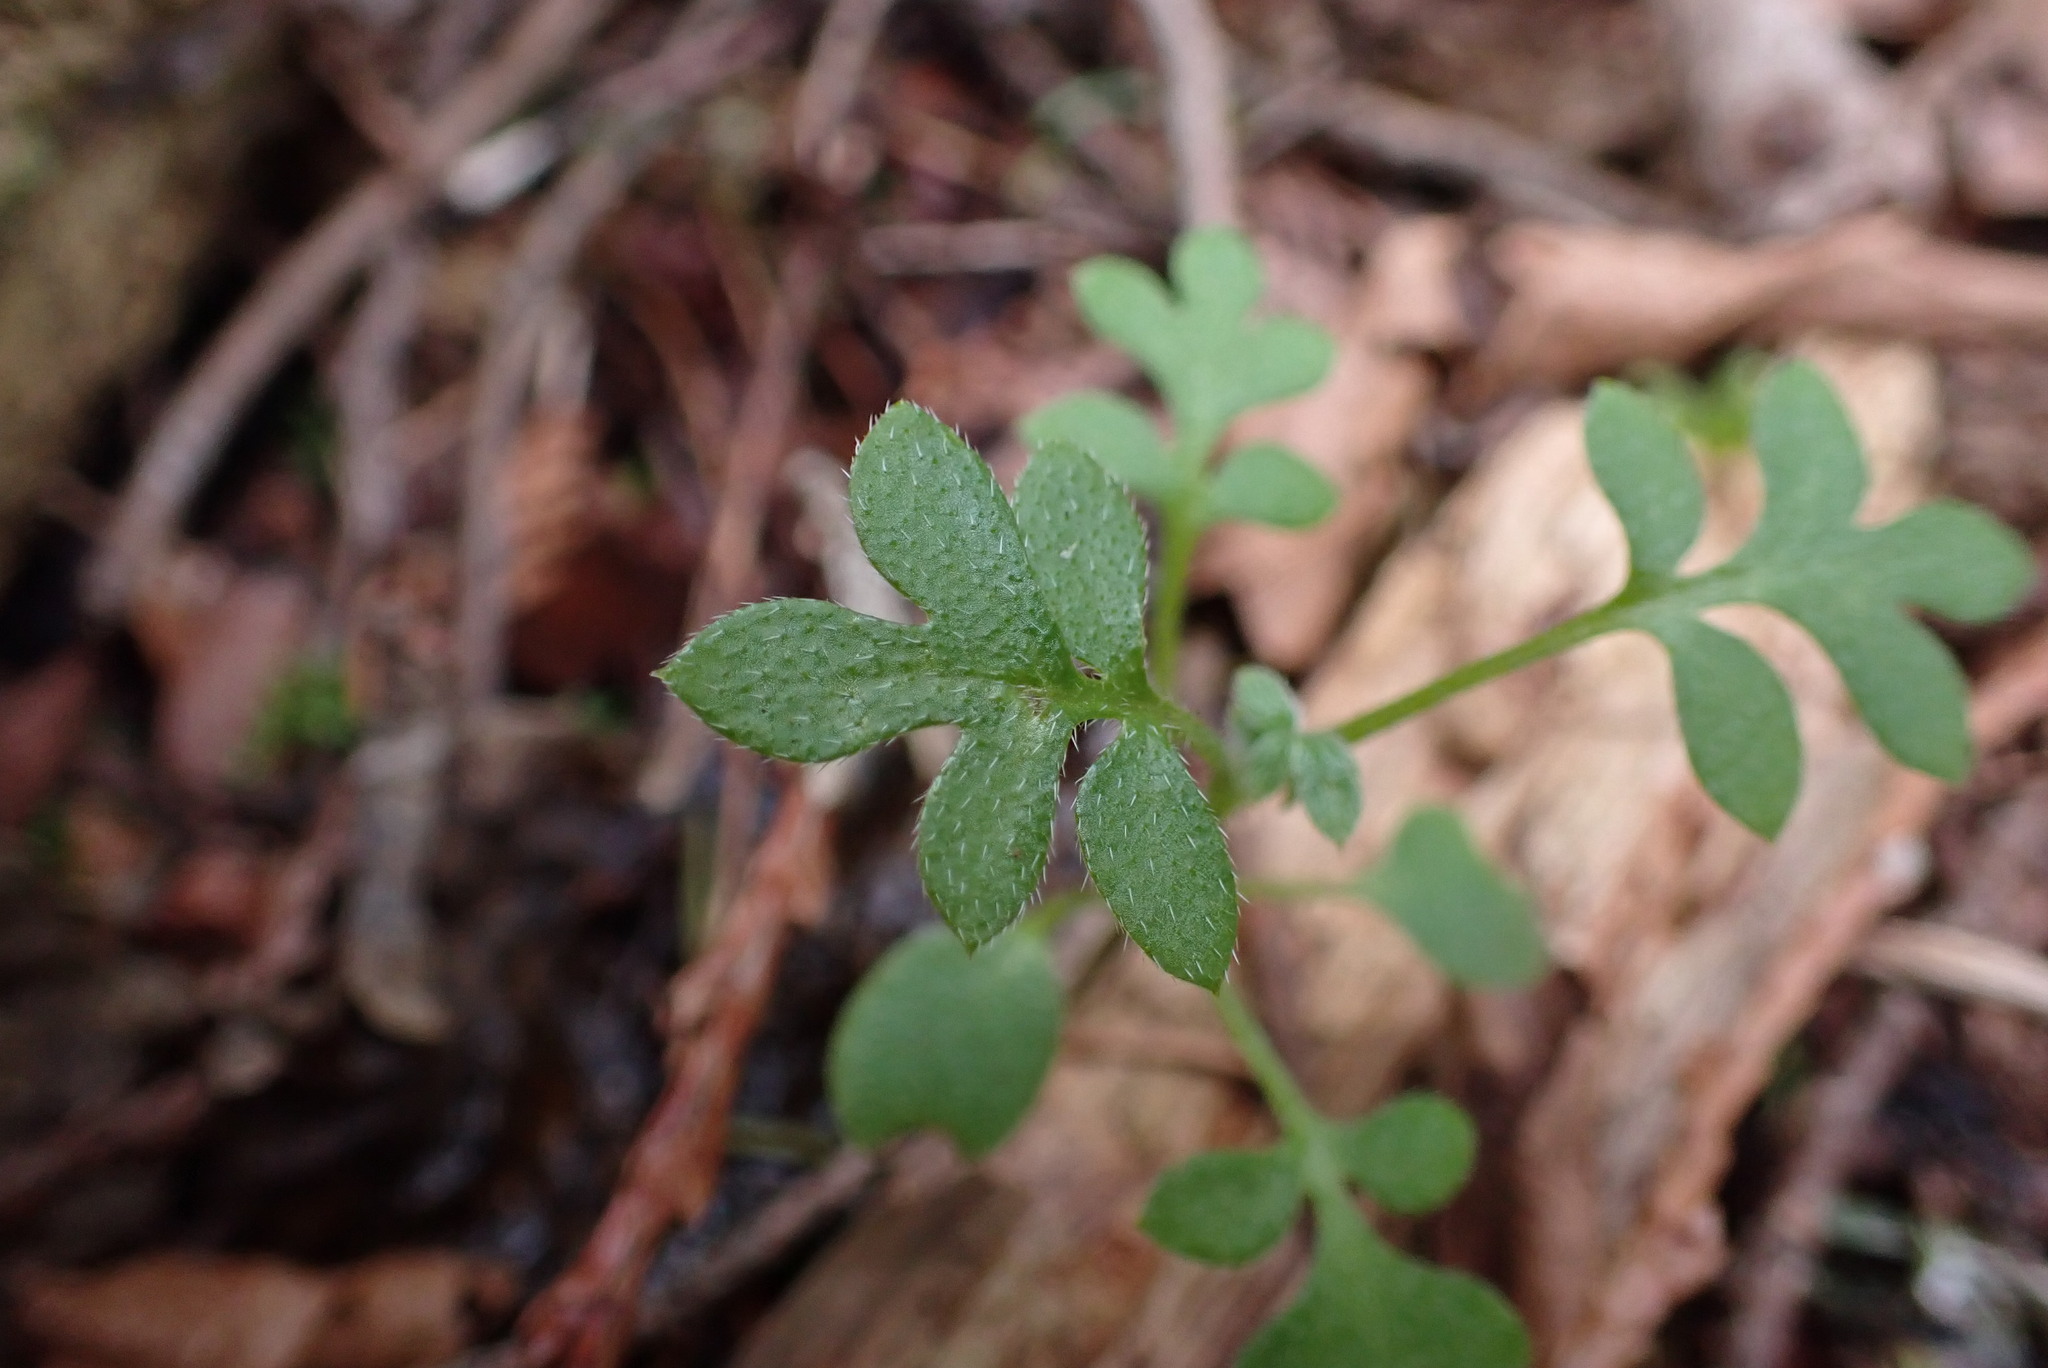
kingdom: Plantae
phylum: Tracheophyta
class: Magnoliopsida
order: Boraginales
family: Hydrophyllaceae
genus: Nemophila
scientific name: Nemophila parviflora
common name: Small-flowered baby-blue-eyes
